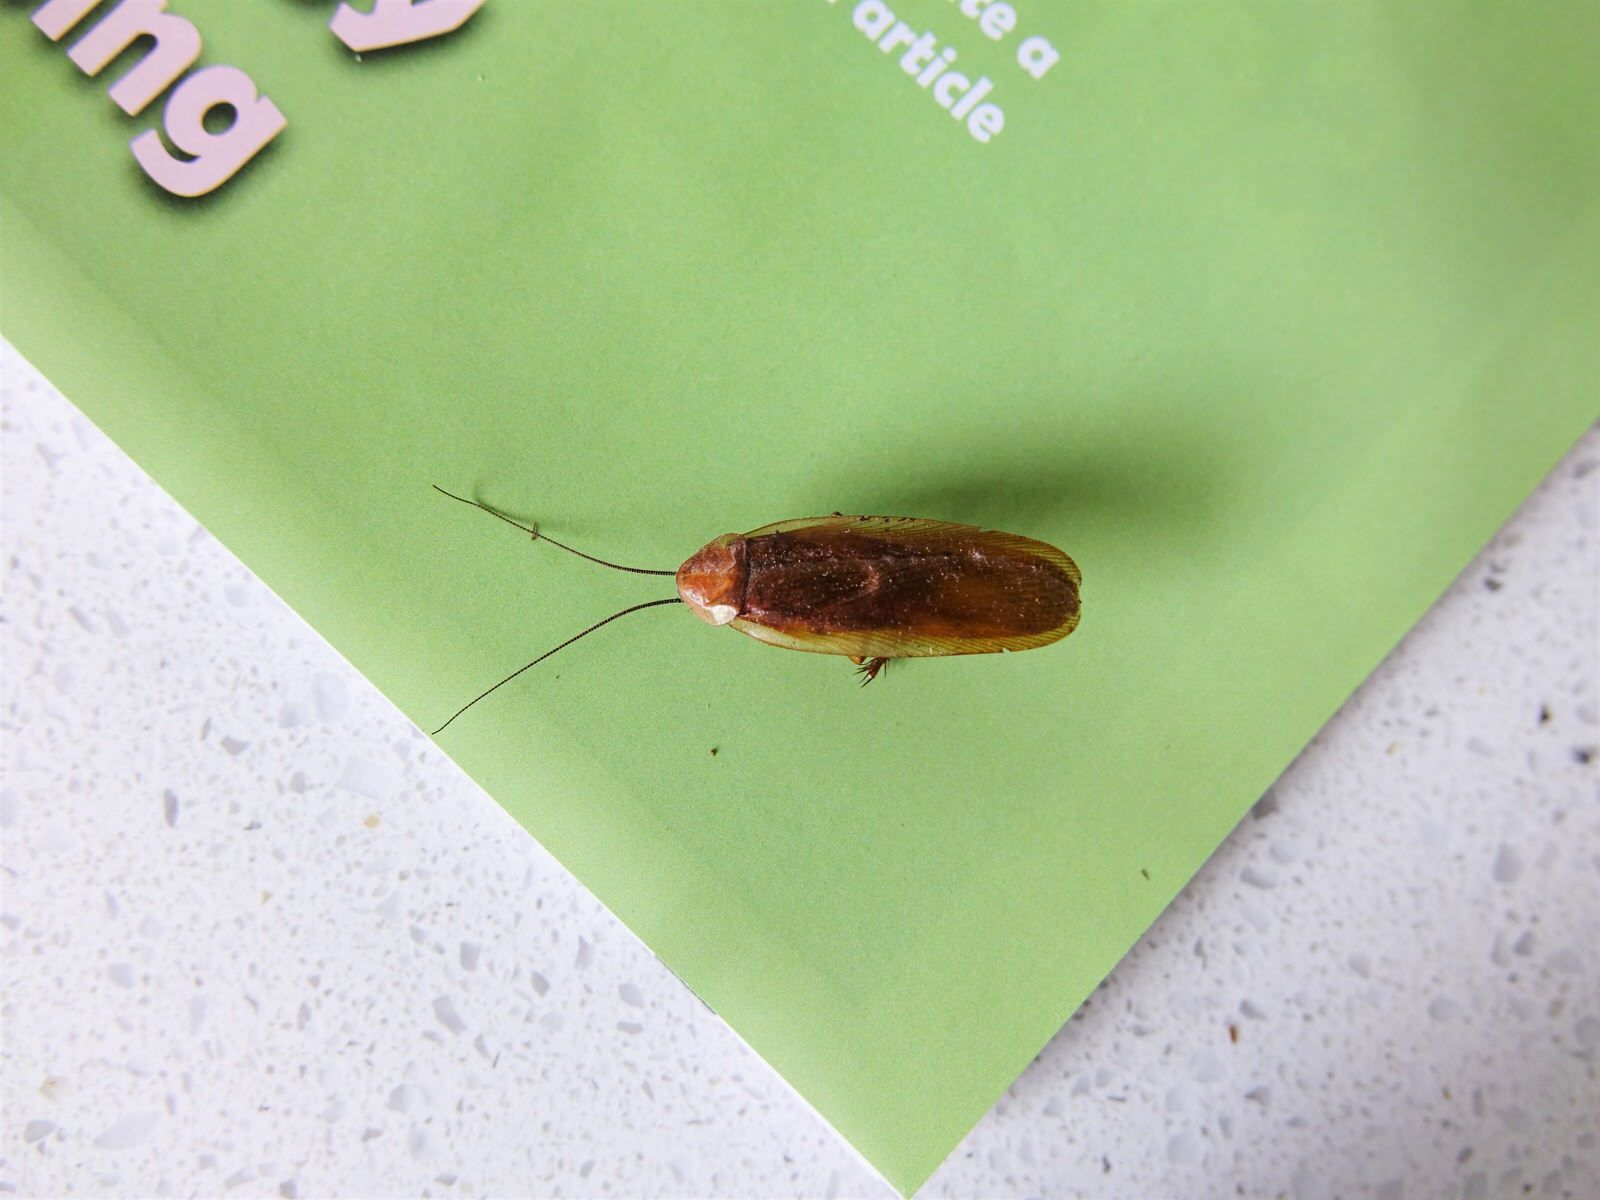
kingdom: Animalia
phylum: Arthropoda
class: Insecta
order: Blattodea
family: Blattidae
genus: Periplaneta
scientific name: Periplaneta americana
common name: American cockroach
